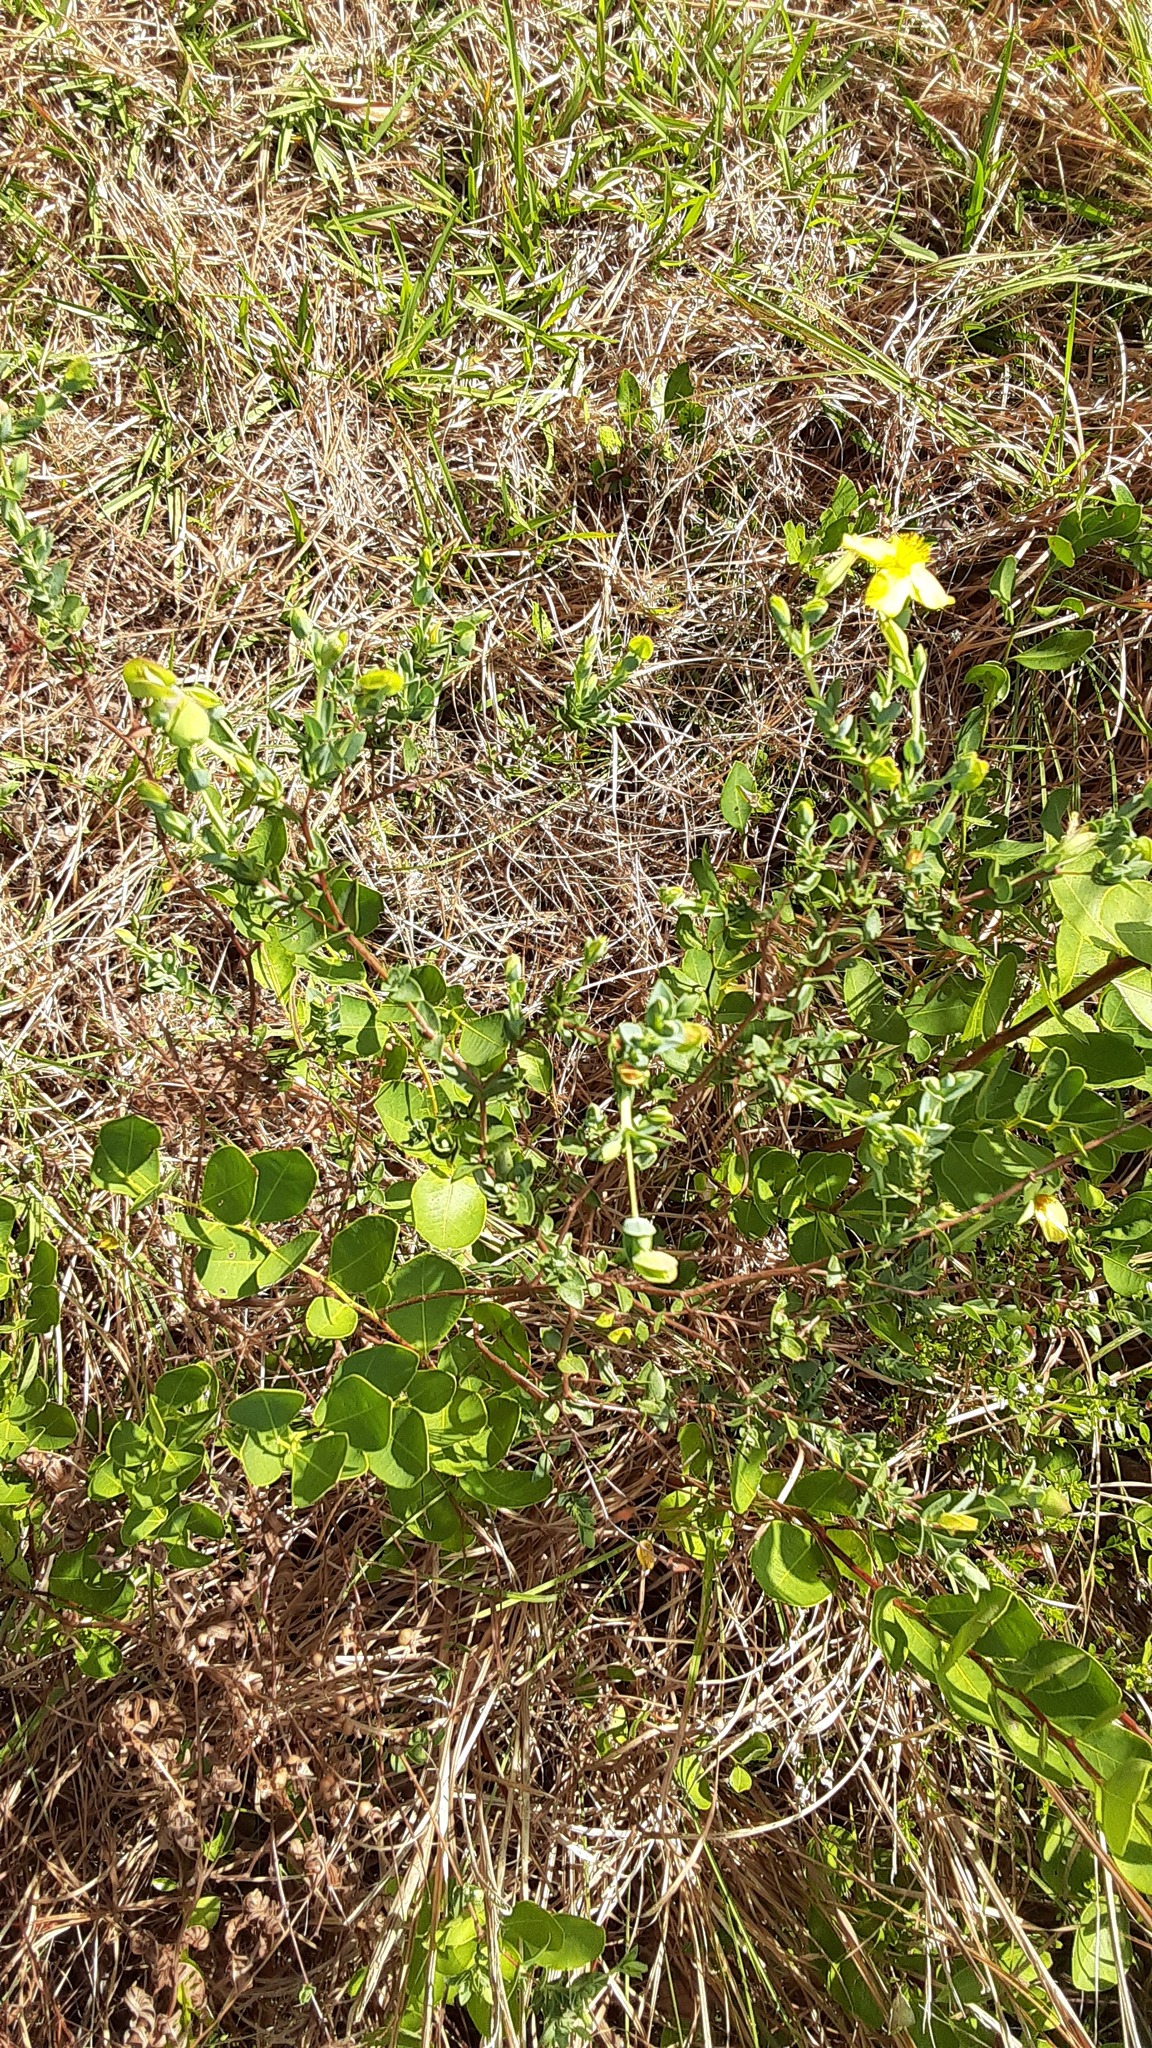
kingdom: Plantae
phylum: Tracheophyta
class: Magnoliopsida
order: Malpighiales
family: Hypericaceae
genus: Hypericum
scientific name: Hypericum tetrapetalum
